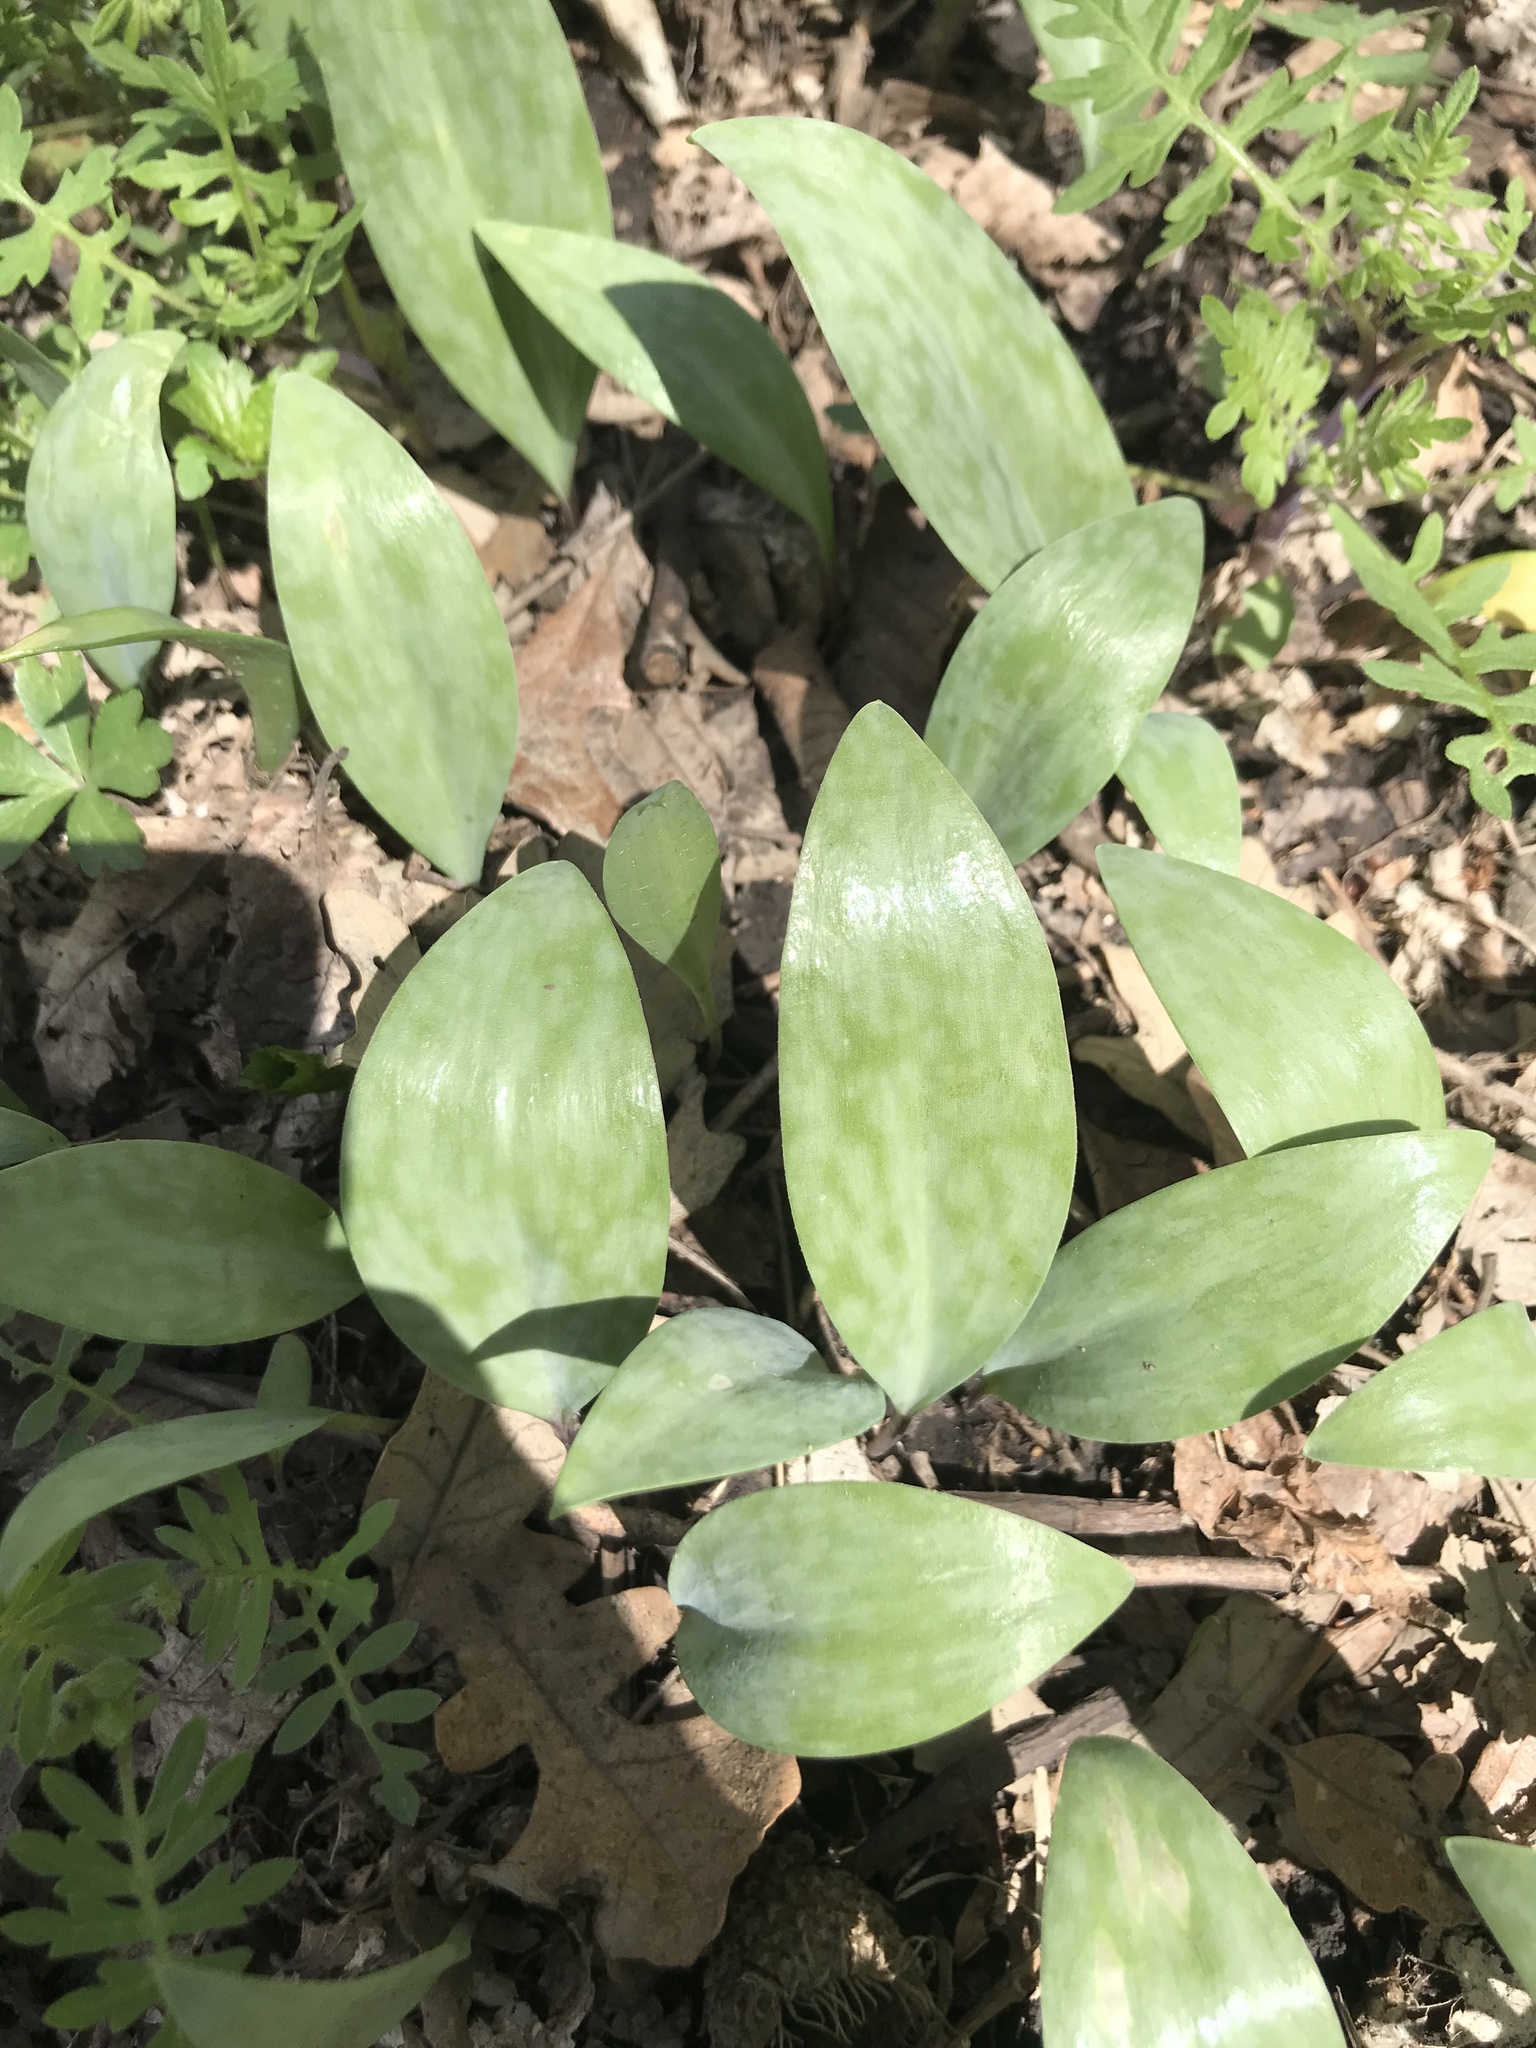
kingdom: Plantae
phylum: Tracheophyta
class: Liliopsida
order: Liliales
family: Liliaceae
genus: Erythronium
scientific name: Erythronium albidum
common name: White trout-lily
